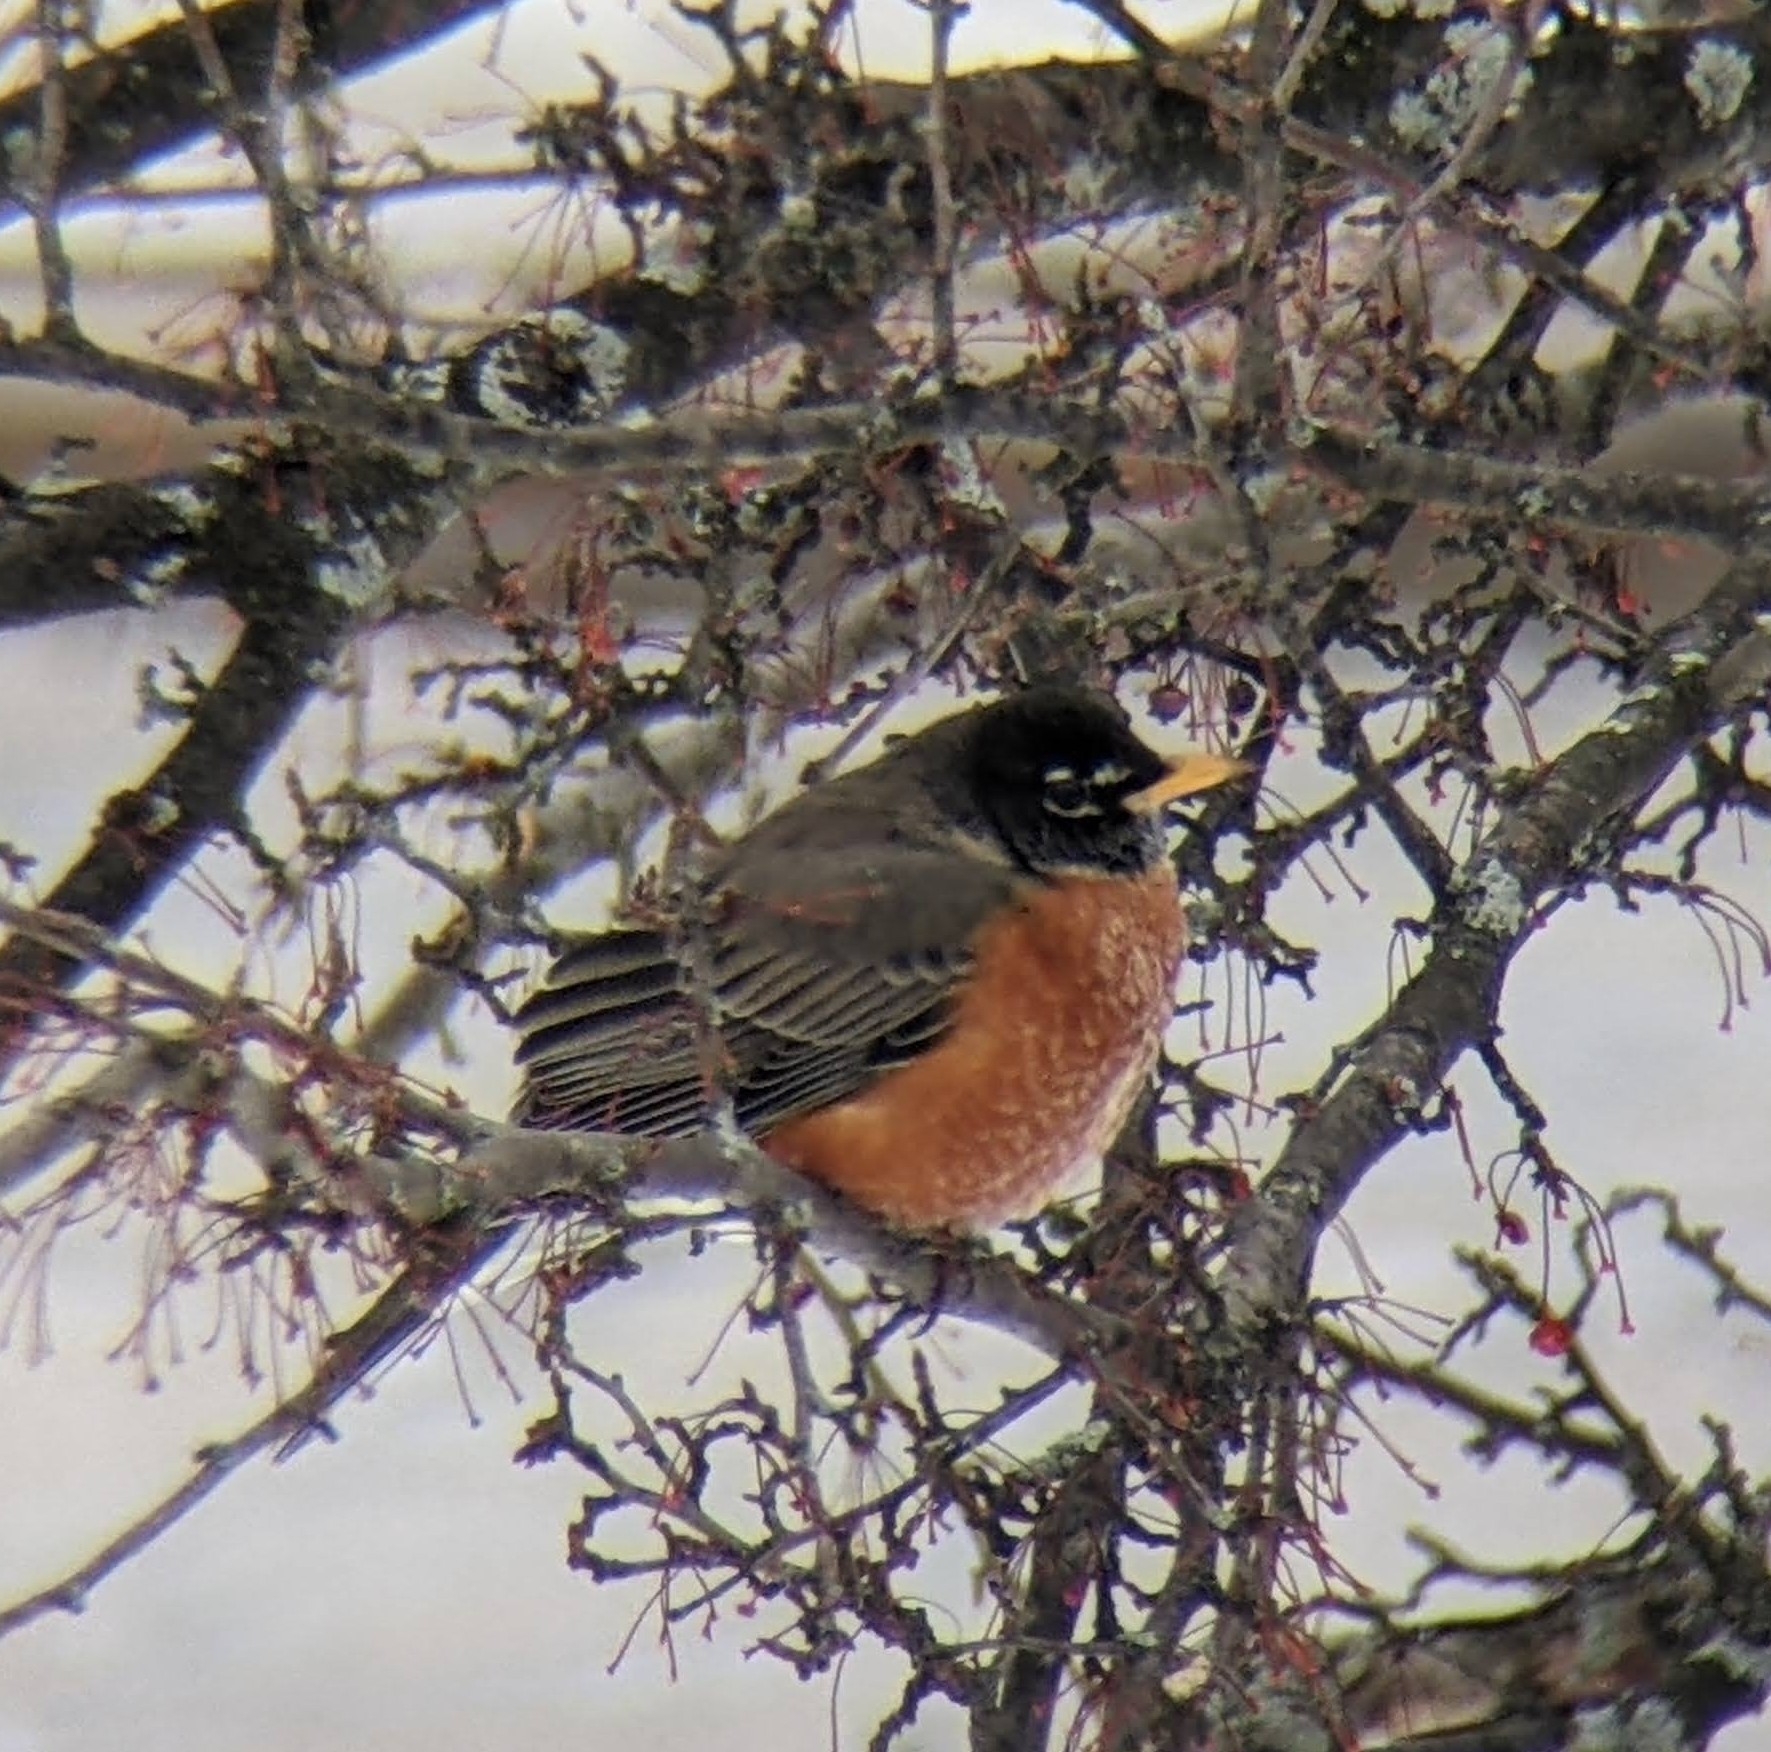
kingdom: Animalia
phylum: Chordata
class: Aves
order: Passeriformes
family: Turdidae
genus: Turdus
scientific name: Turdus migratorius
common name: American robin
